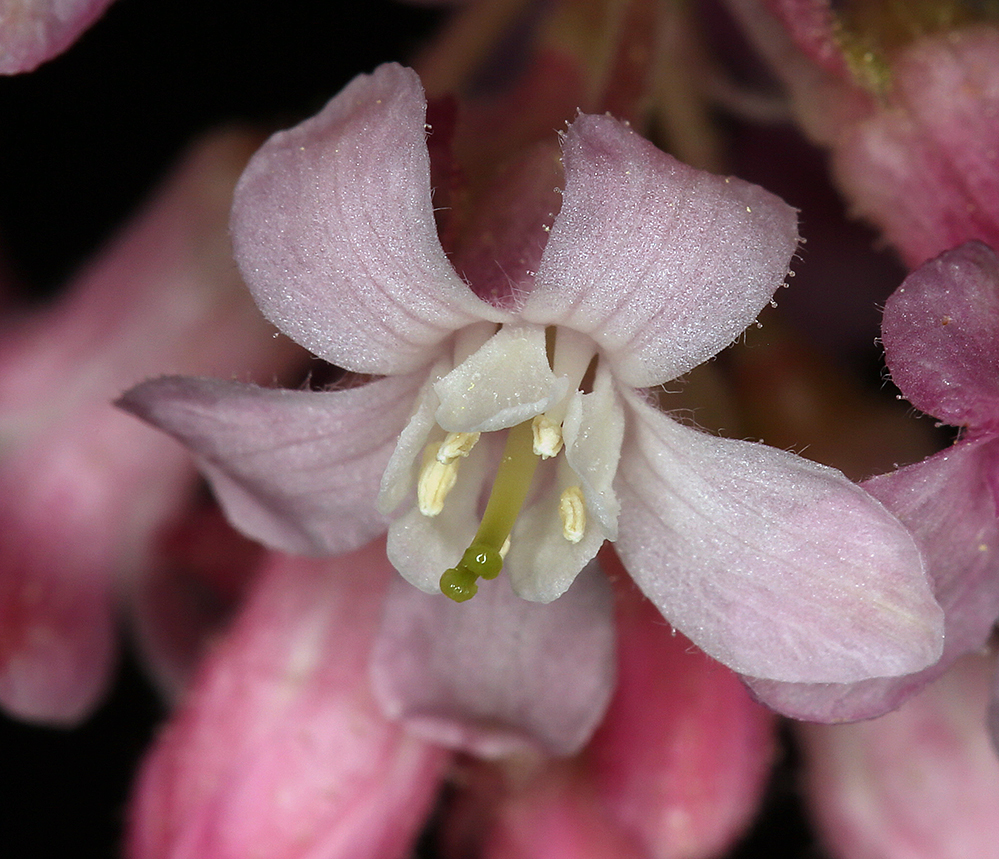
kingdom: Plantae
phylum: Tracheophyta
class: Magnoliopsida
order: Saxifragales
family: Grossulariaceae
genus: Ribes
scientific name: Ribes sanguineum
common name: Flowering currant
